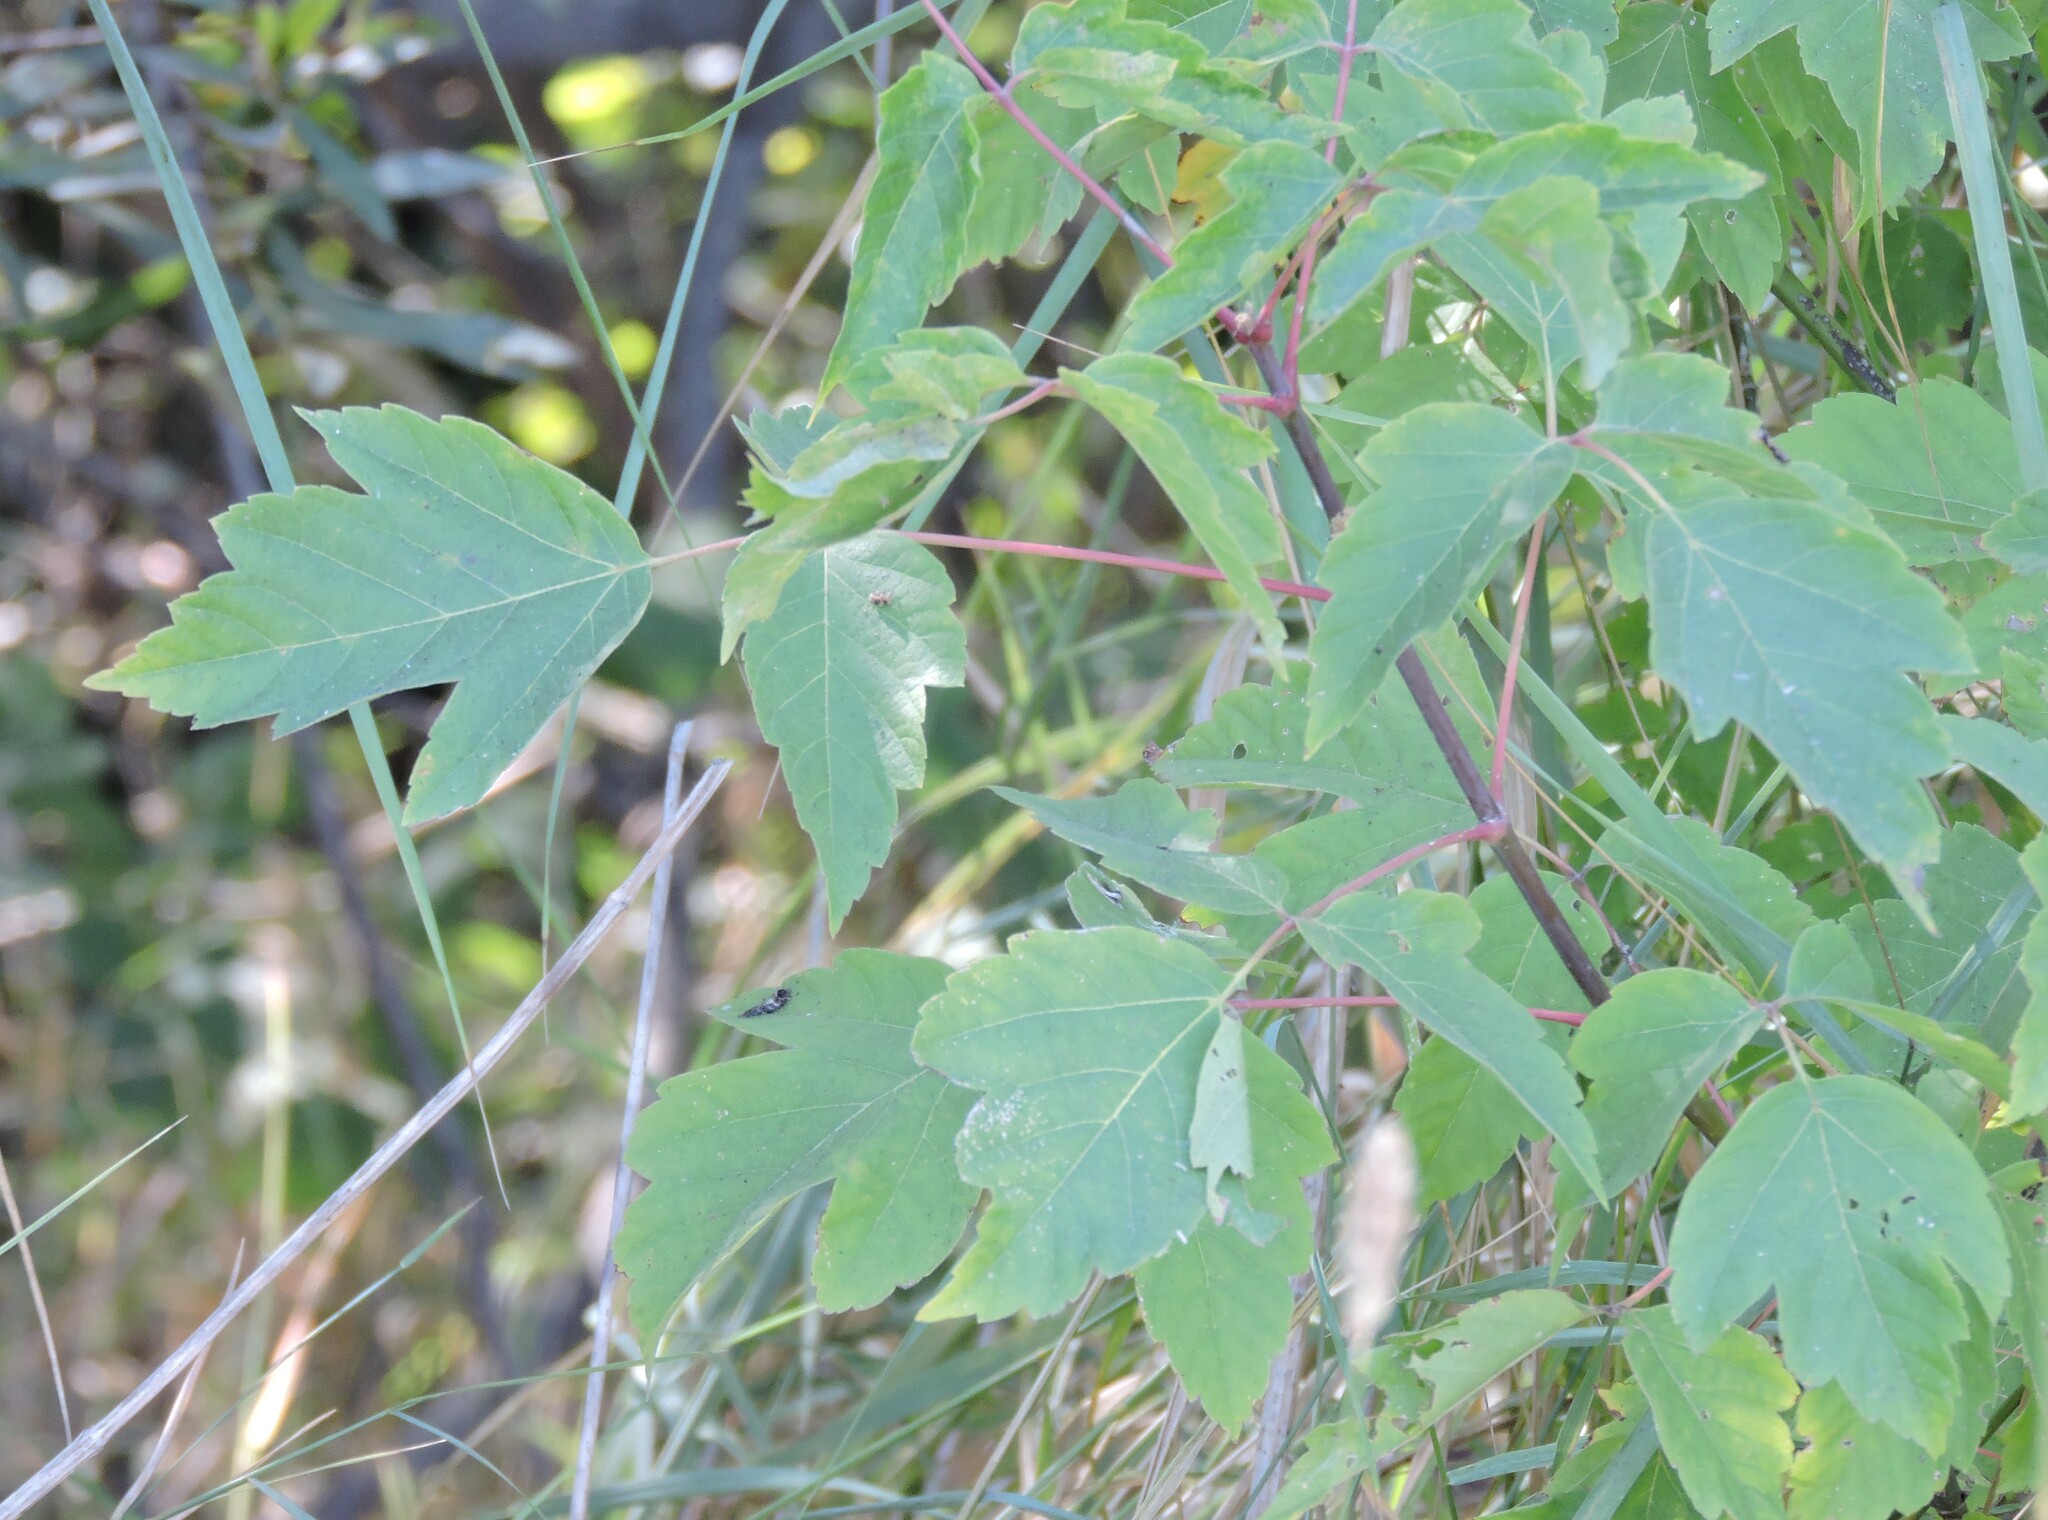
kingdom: Plantae
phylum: Tracheophyta
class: Magnoliopsida
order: Sapindales
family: Sapindaceae
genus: Acer
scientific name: Acer negundo
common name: Ashleaf maple
